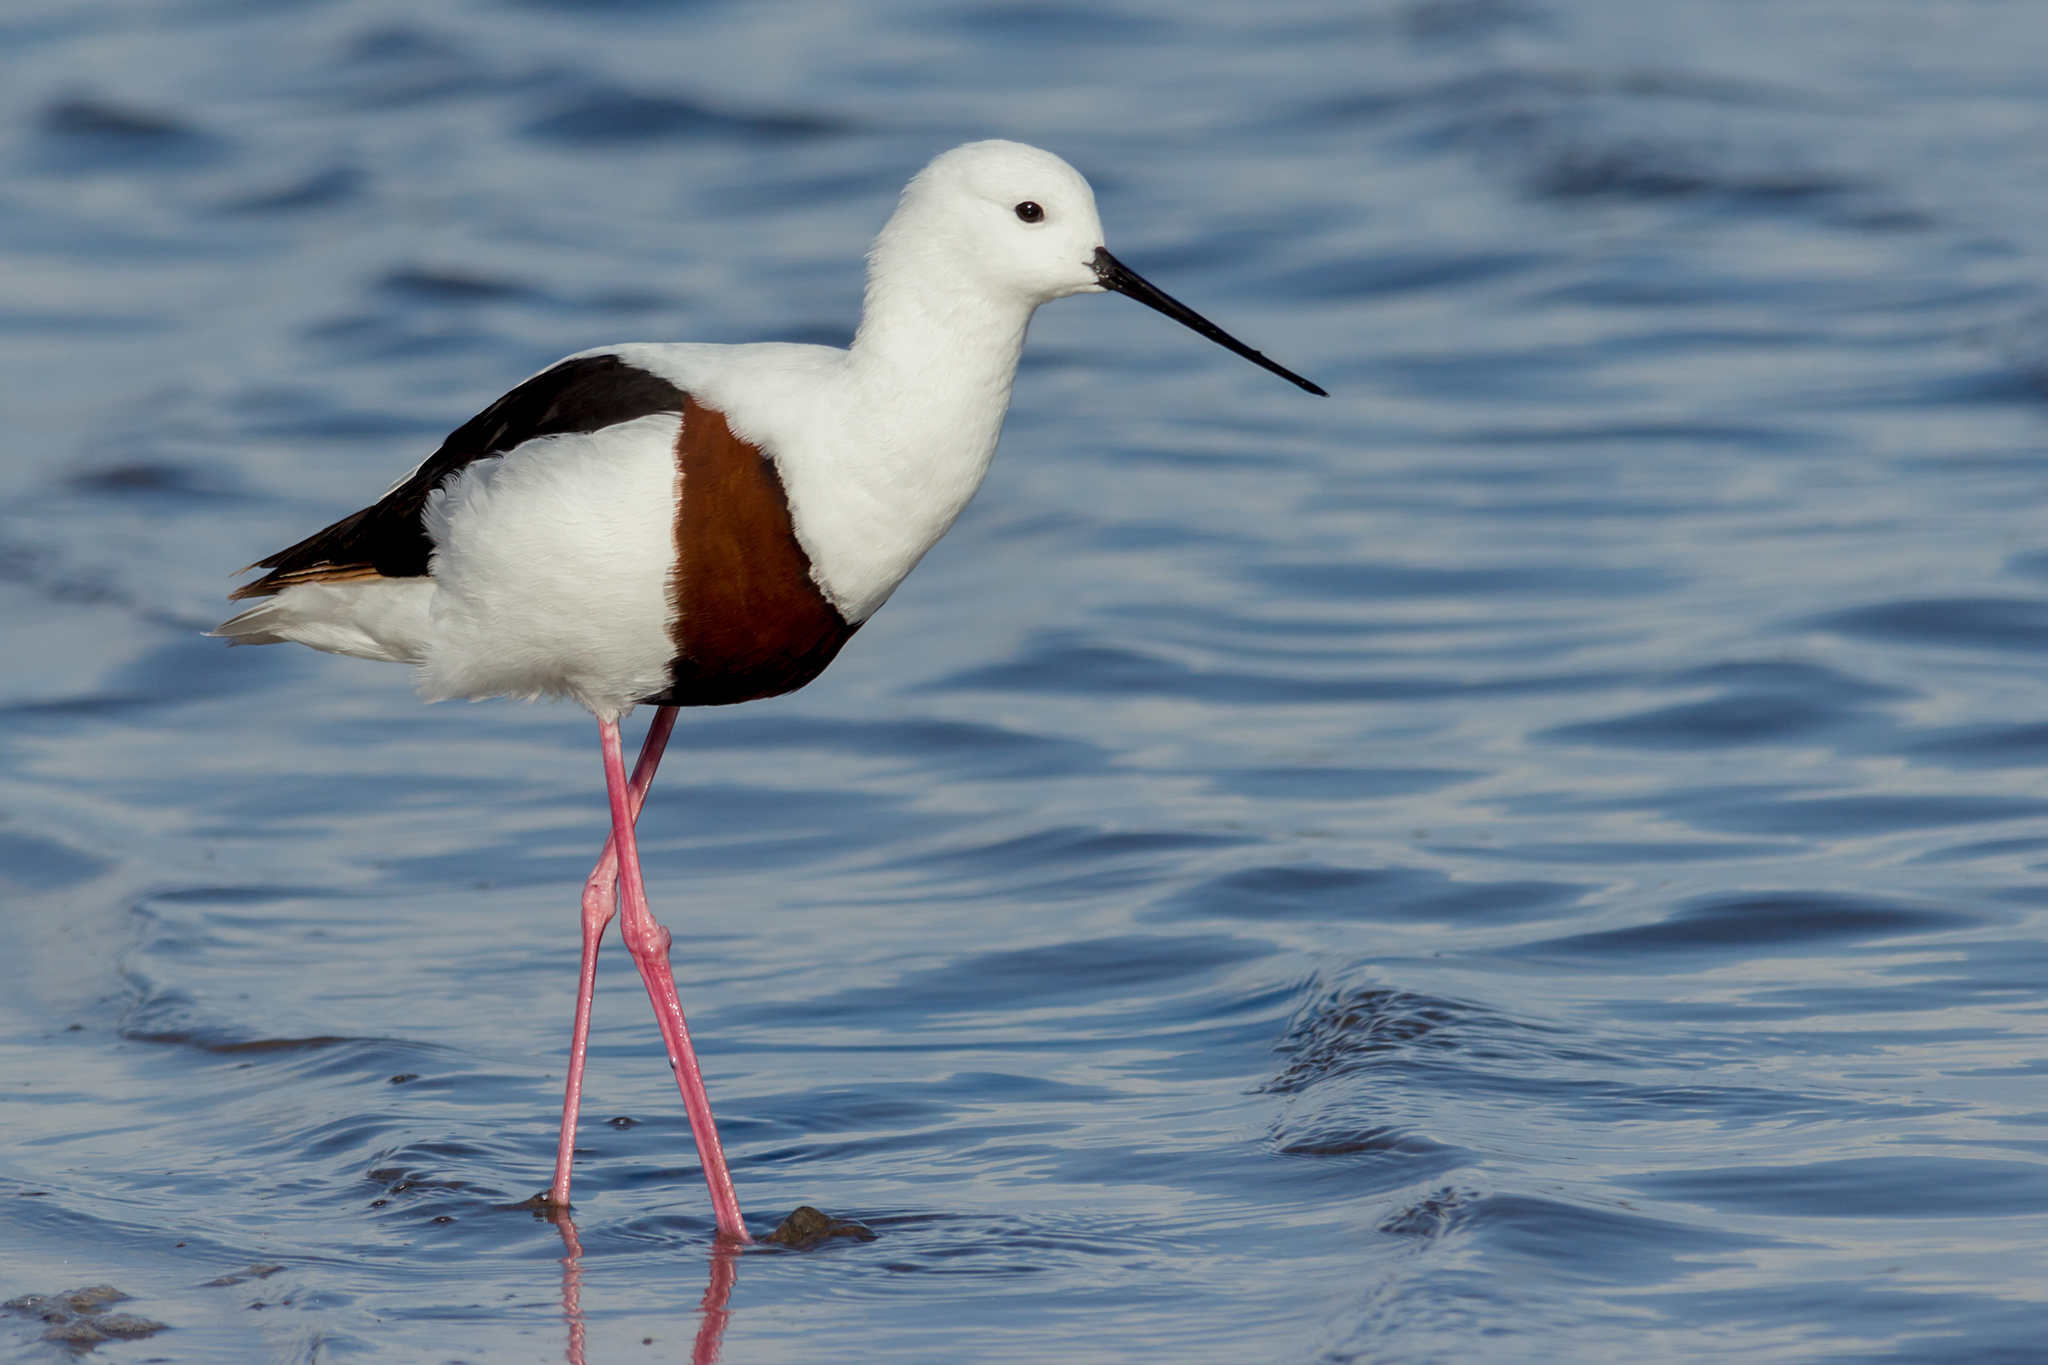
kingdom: Animalia
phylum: Chordata
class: Aves
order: Charadriiformes
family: Recurvirostridae
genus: Cladorhynchus
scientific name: Cladorhynchus leucocephalus
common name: Banded stilt
